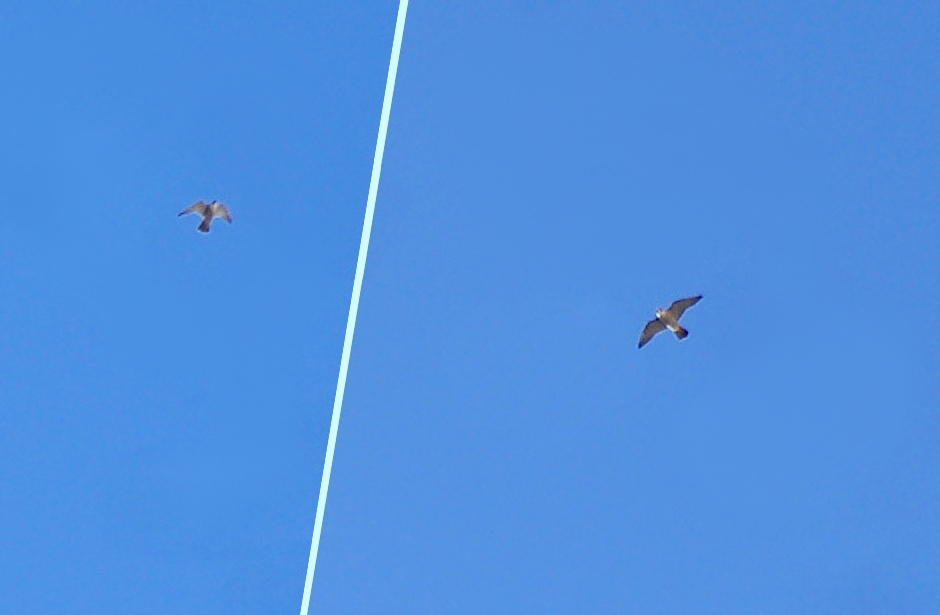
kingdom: Animalia
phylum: Chordata
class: Aves
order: Falconiformes
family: Falconidae
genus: Falco
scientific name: Falco peregrinus
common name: Peregrine falcon
